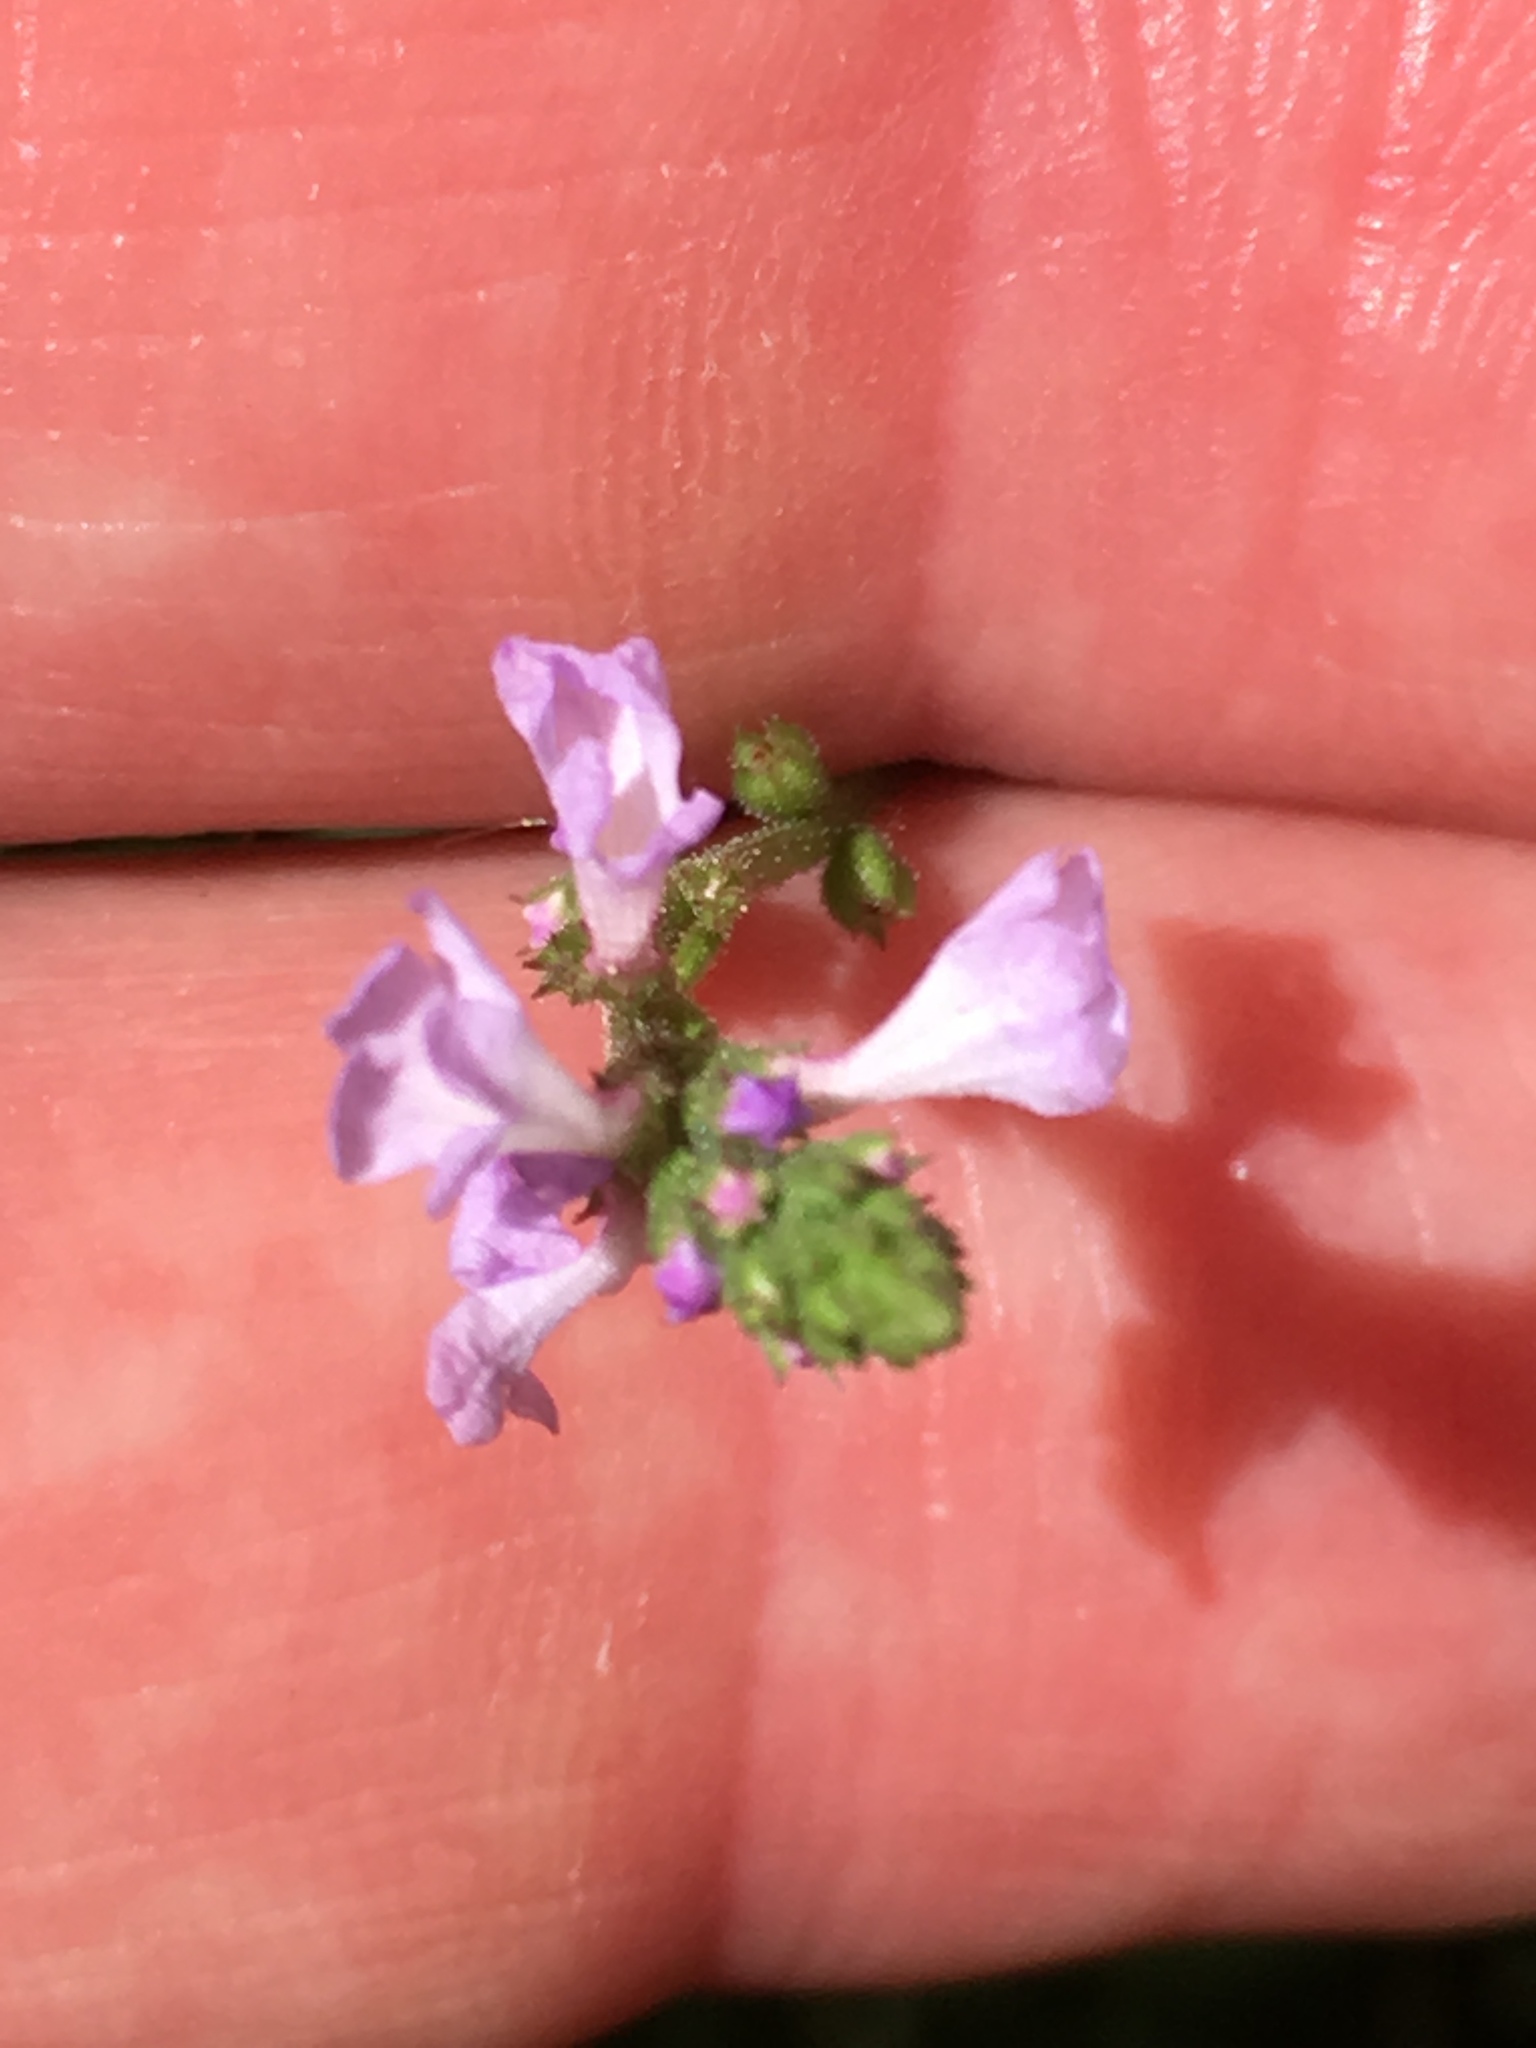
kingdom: Plantae
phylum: Tracheophyta
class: Magnoliopsida
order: Lamiales
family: Verbenaceae
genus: Verbena
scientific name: Verbena officinalis
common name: Vervain
